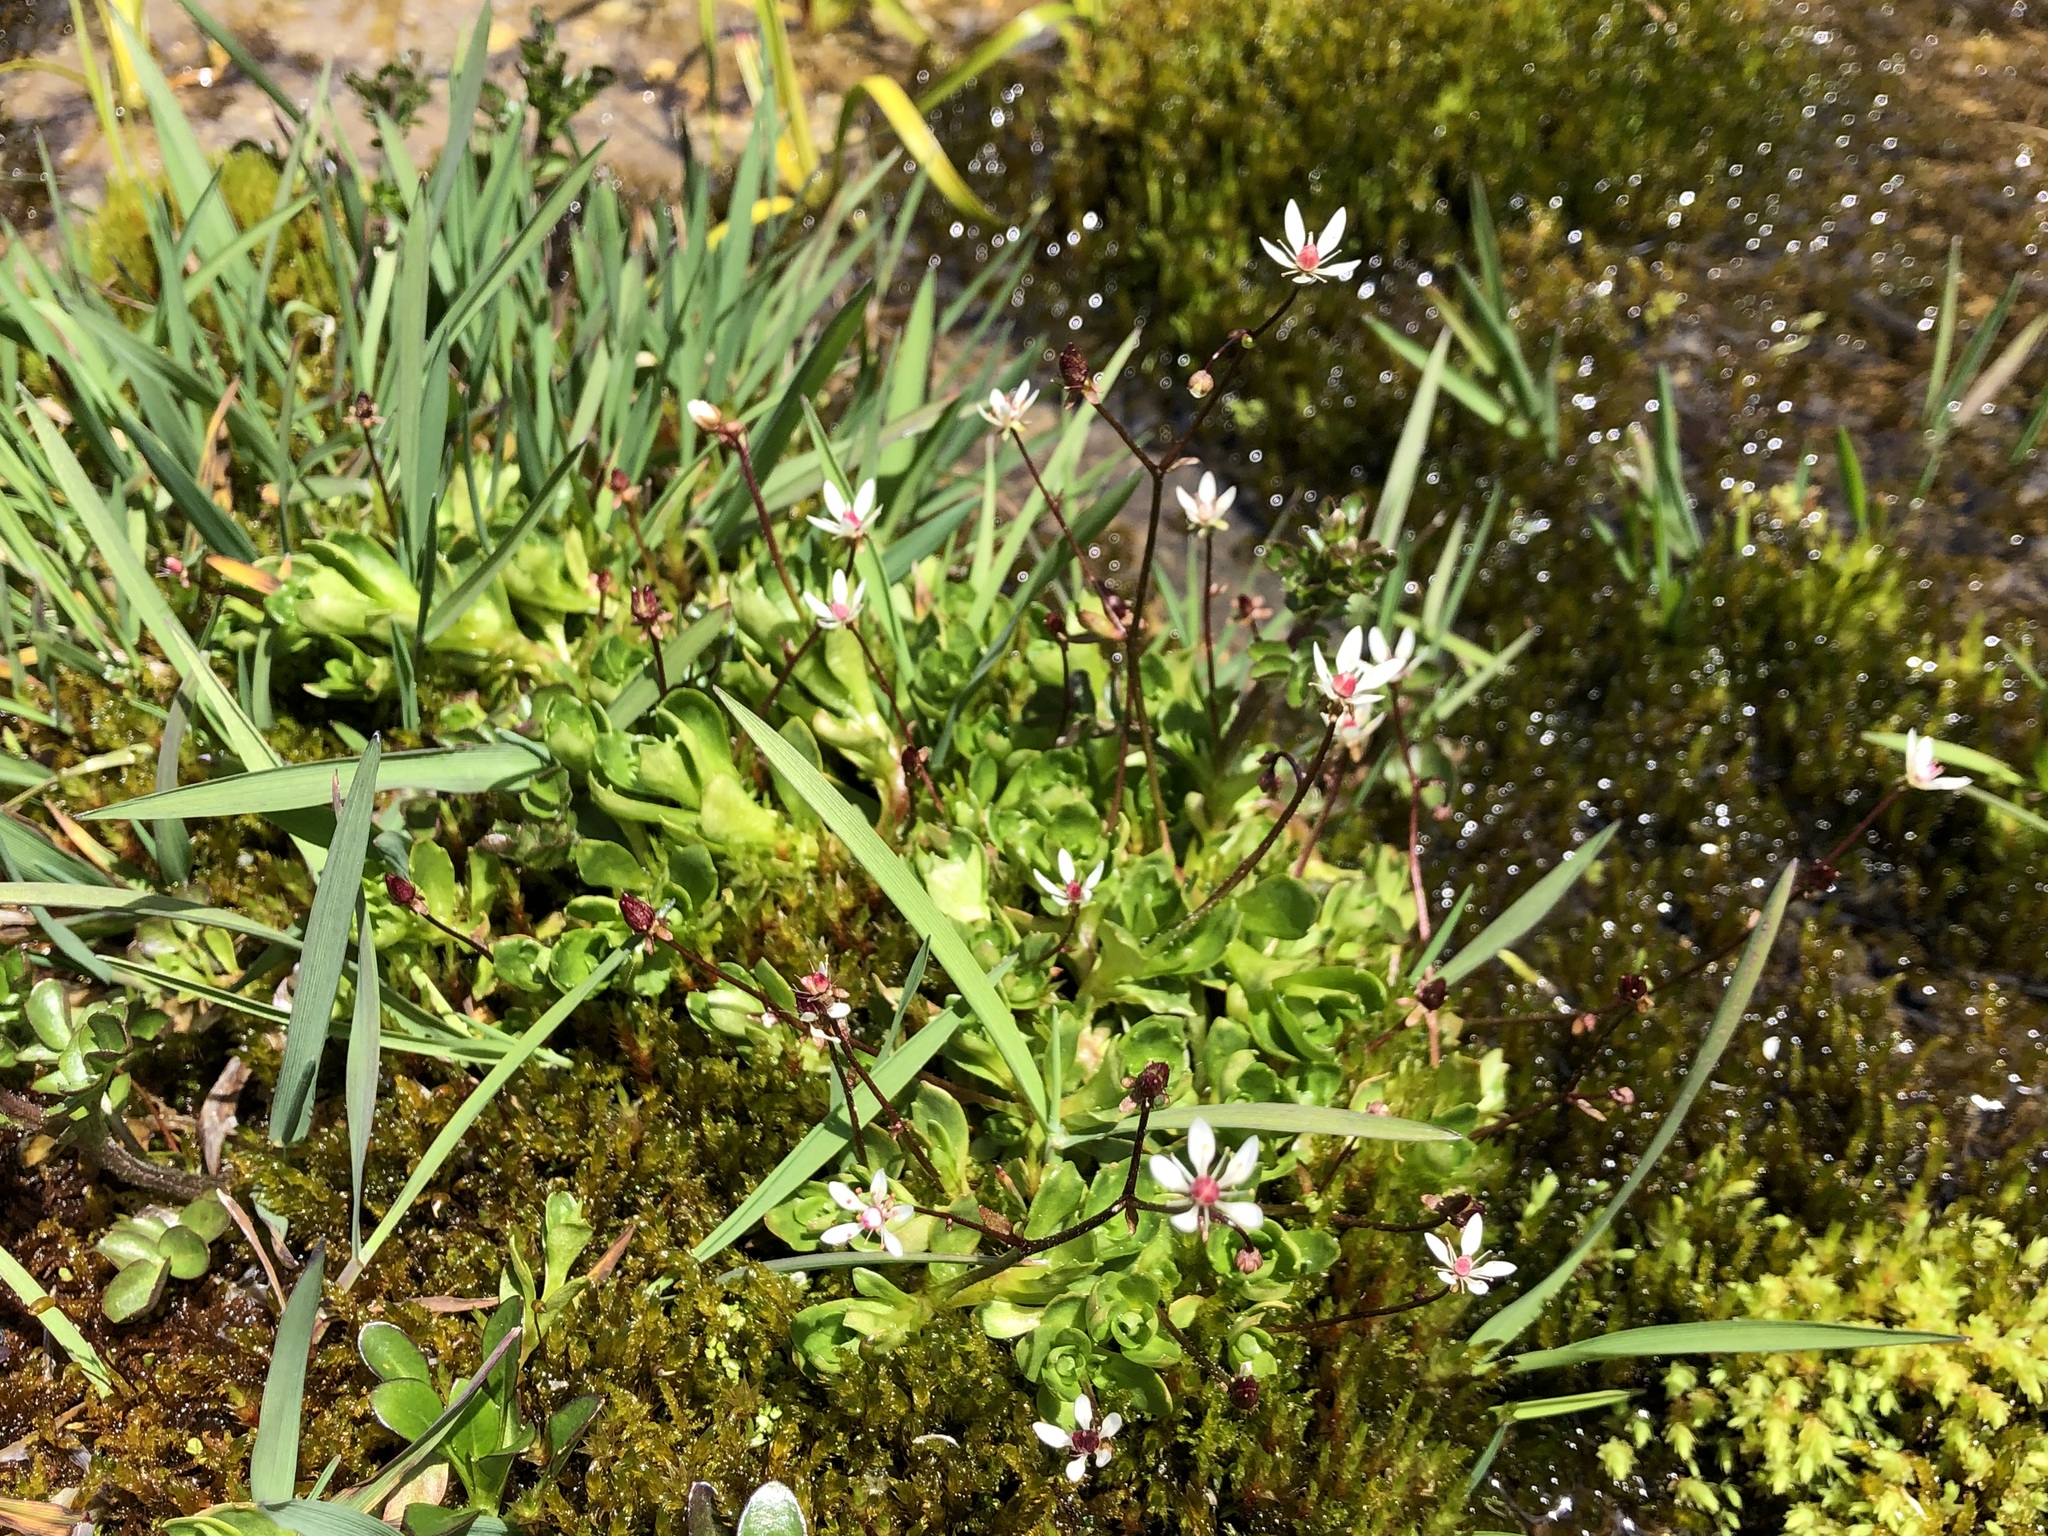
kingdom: Plantae
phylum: Tracheophyta
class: Magnoliopsida
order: Saxifragales
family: Saxifragaceae
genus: Micranthes
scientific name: Micranthes stellaris
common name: Starry saxifrage
